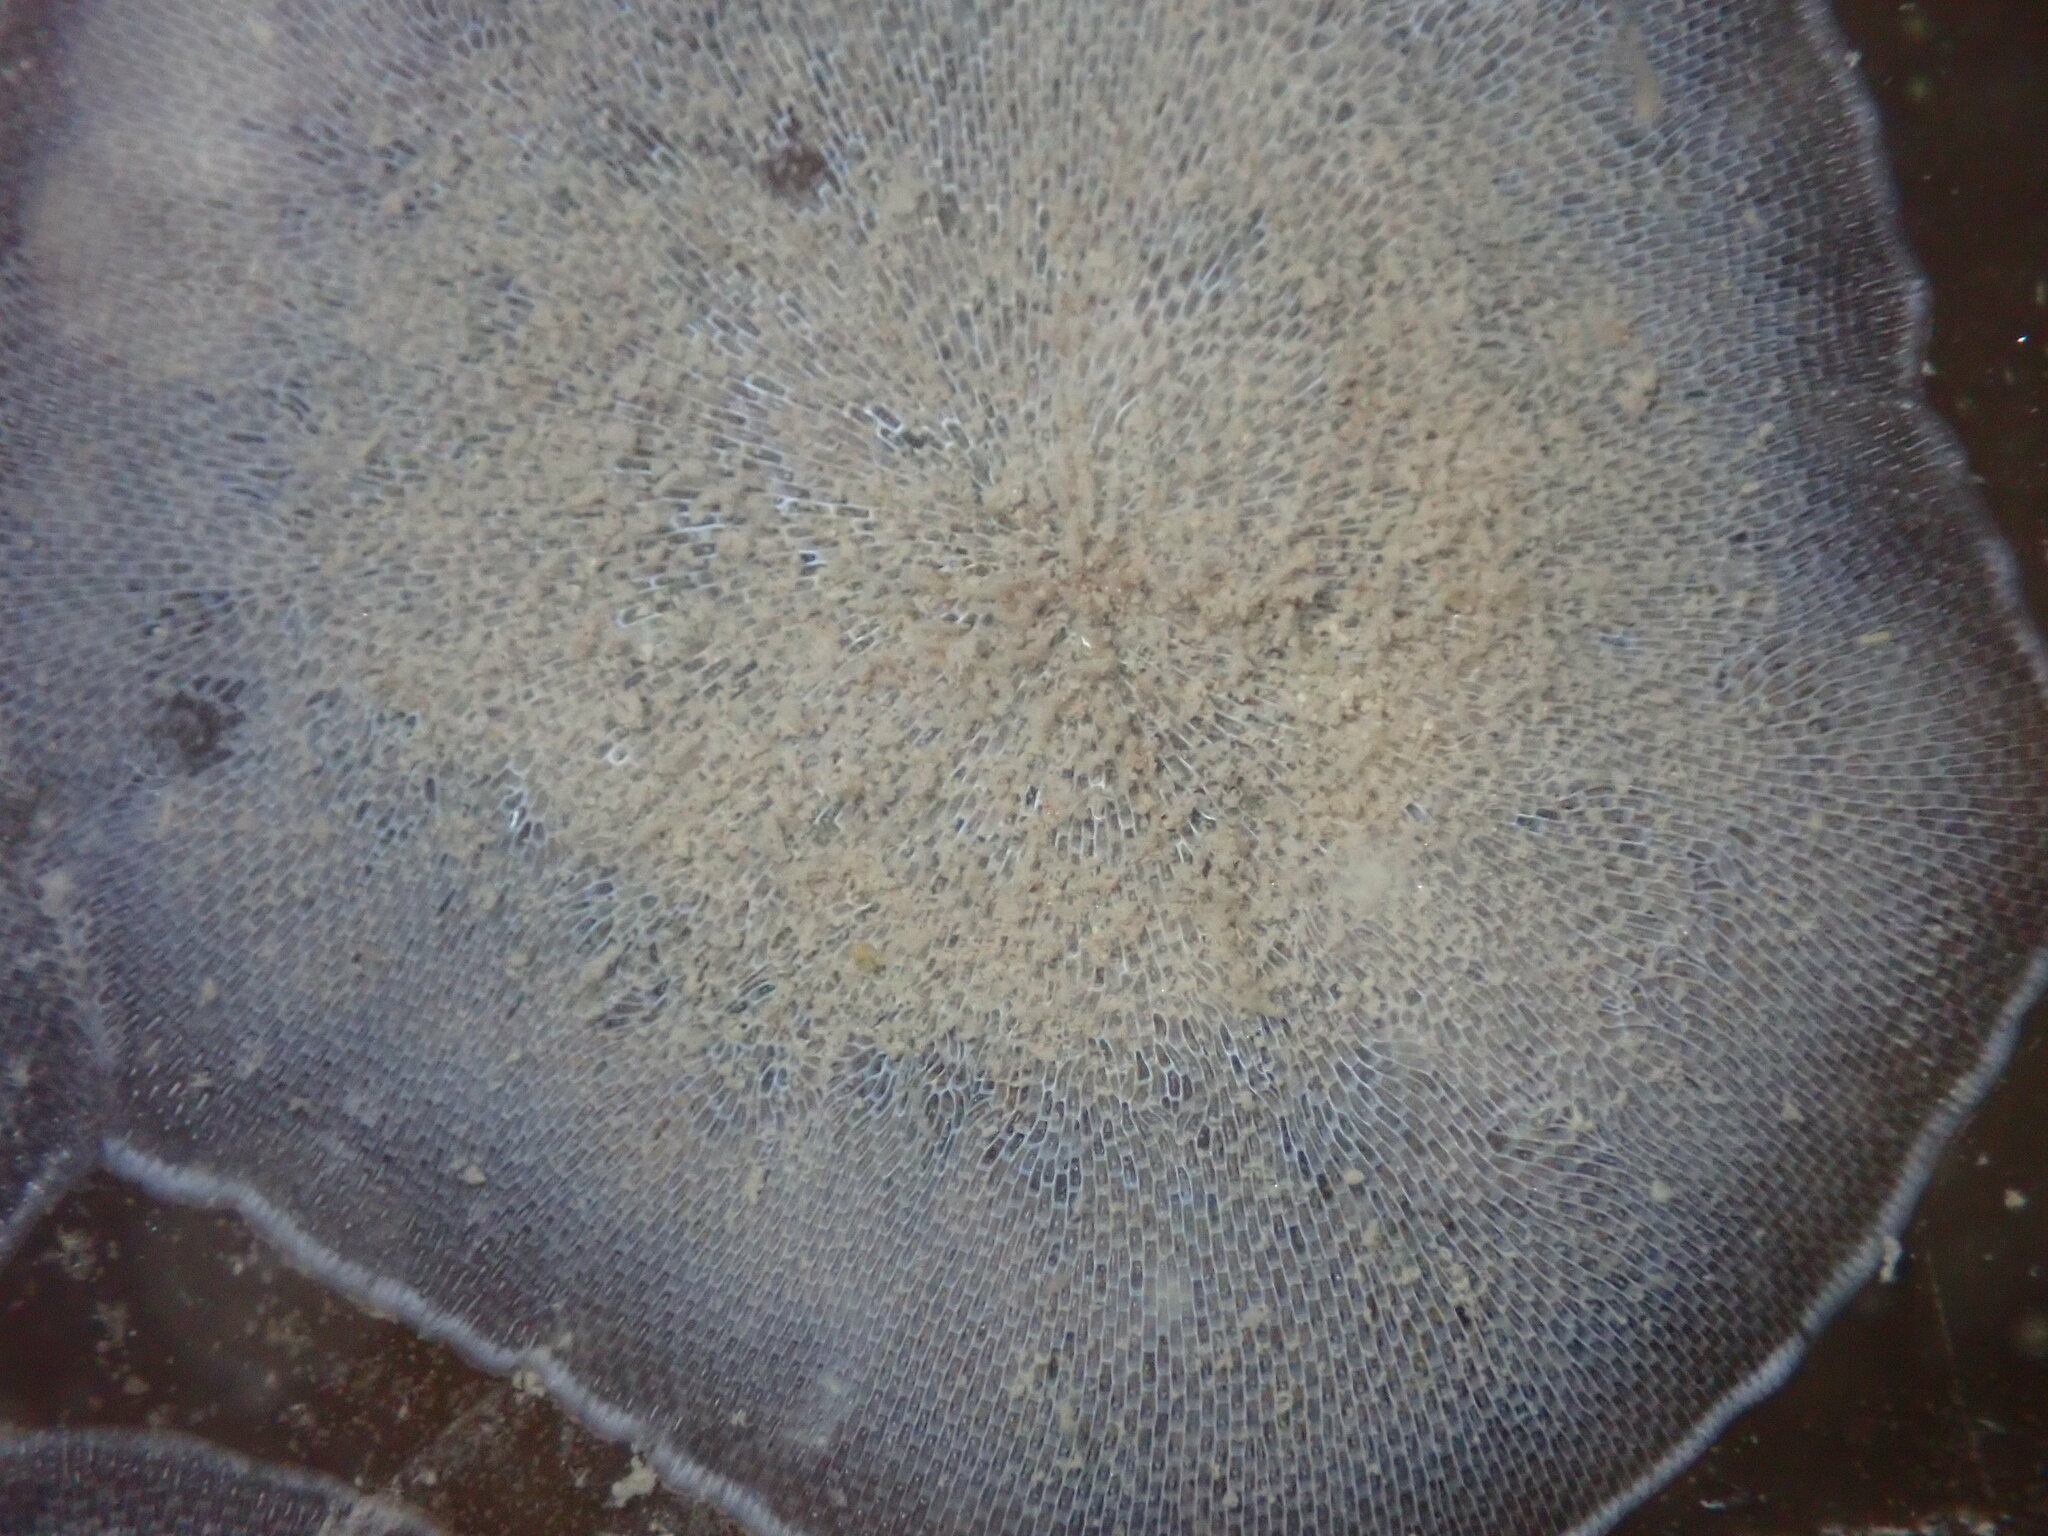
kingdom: Animalia
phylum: Bryozoa
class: Gymnolaemata
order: Cheilostomatida
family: Membraniporidae
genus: Membranipora
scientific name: Membranipora membranacea
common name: Sea mat
